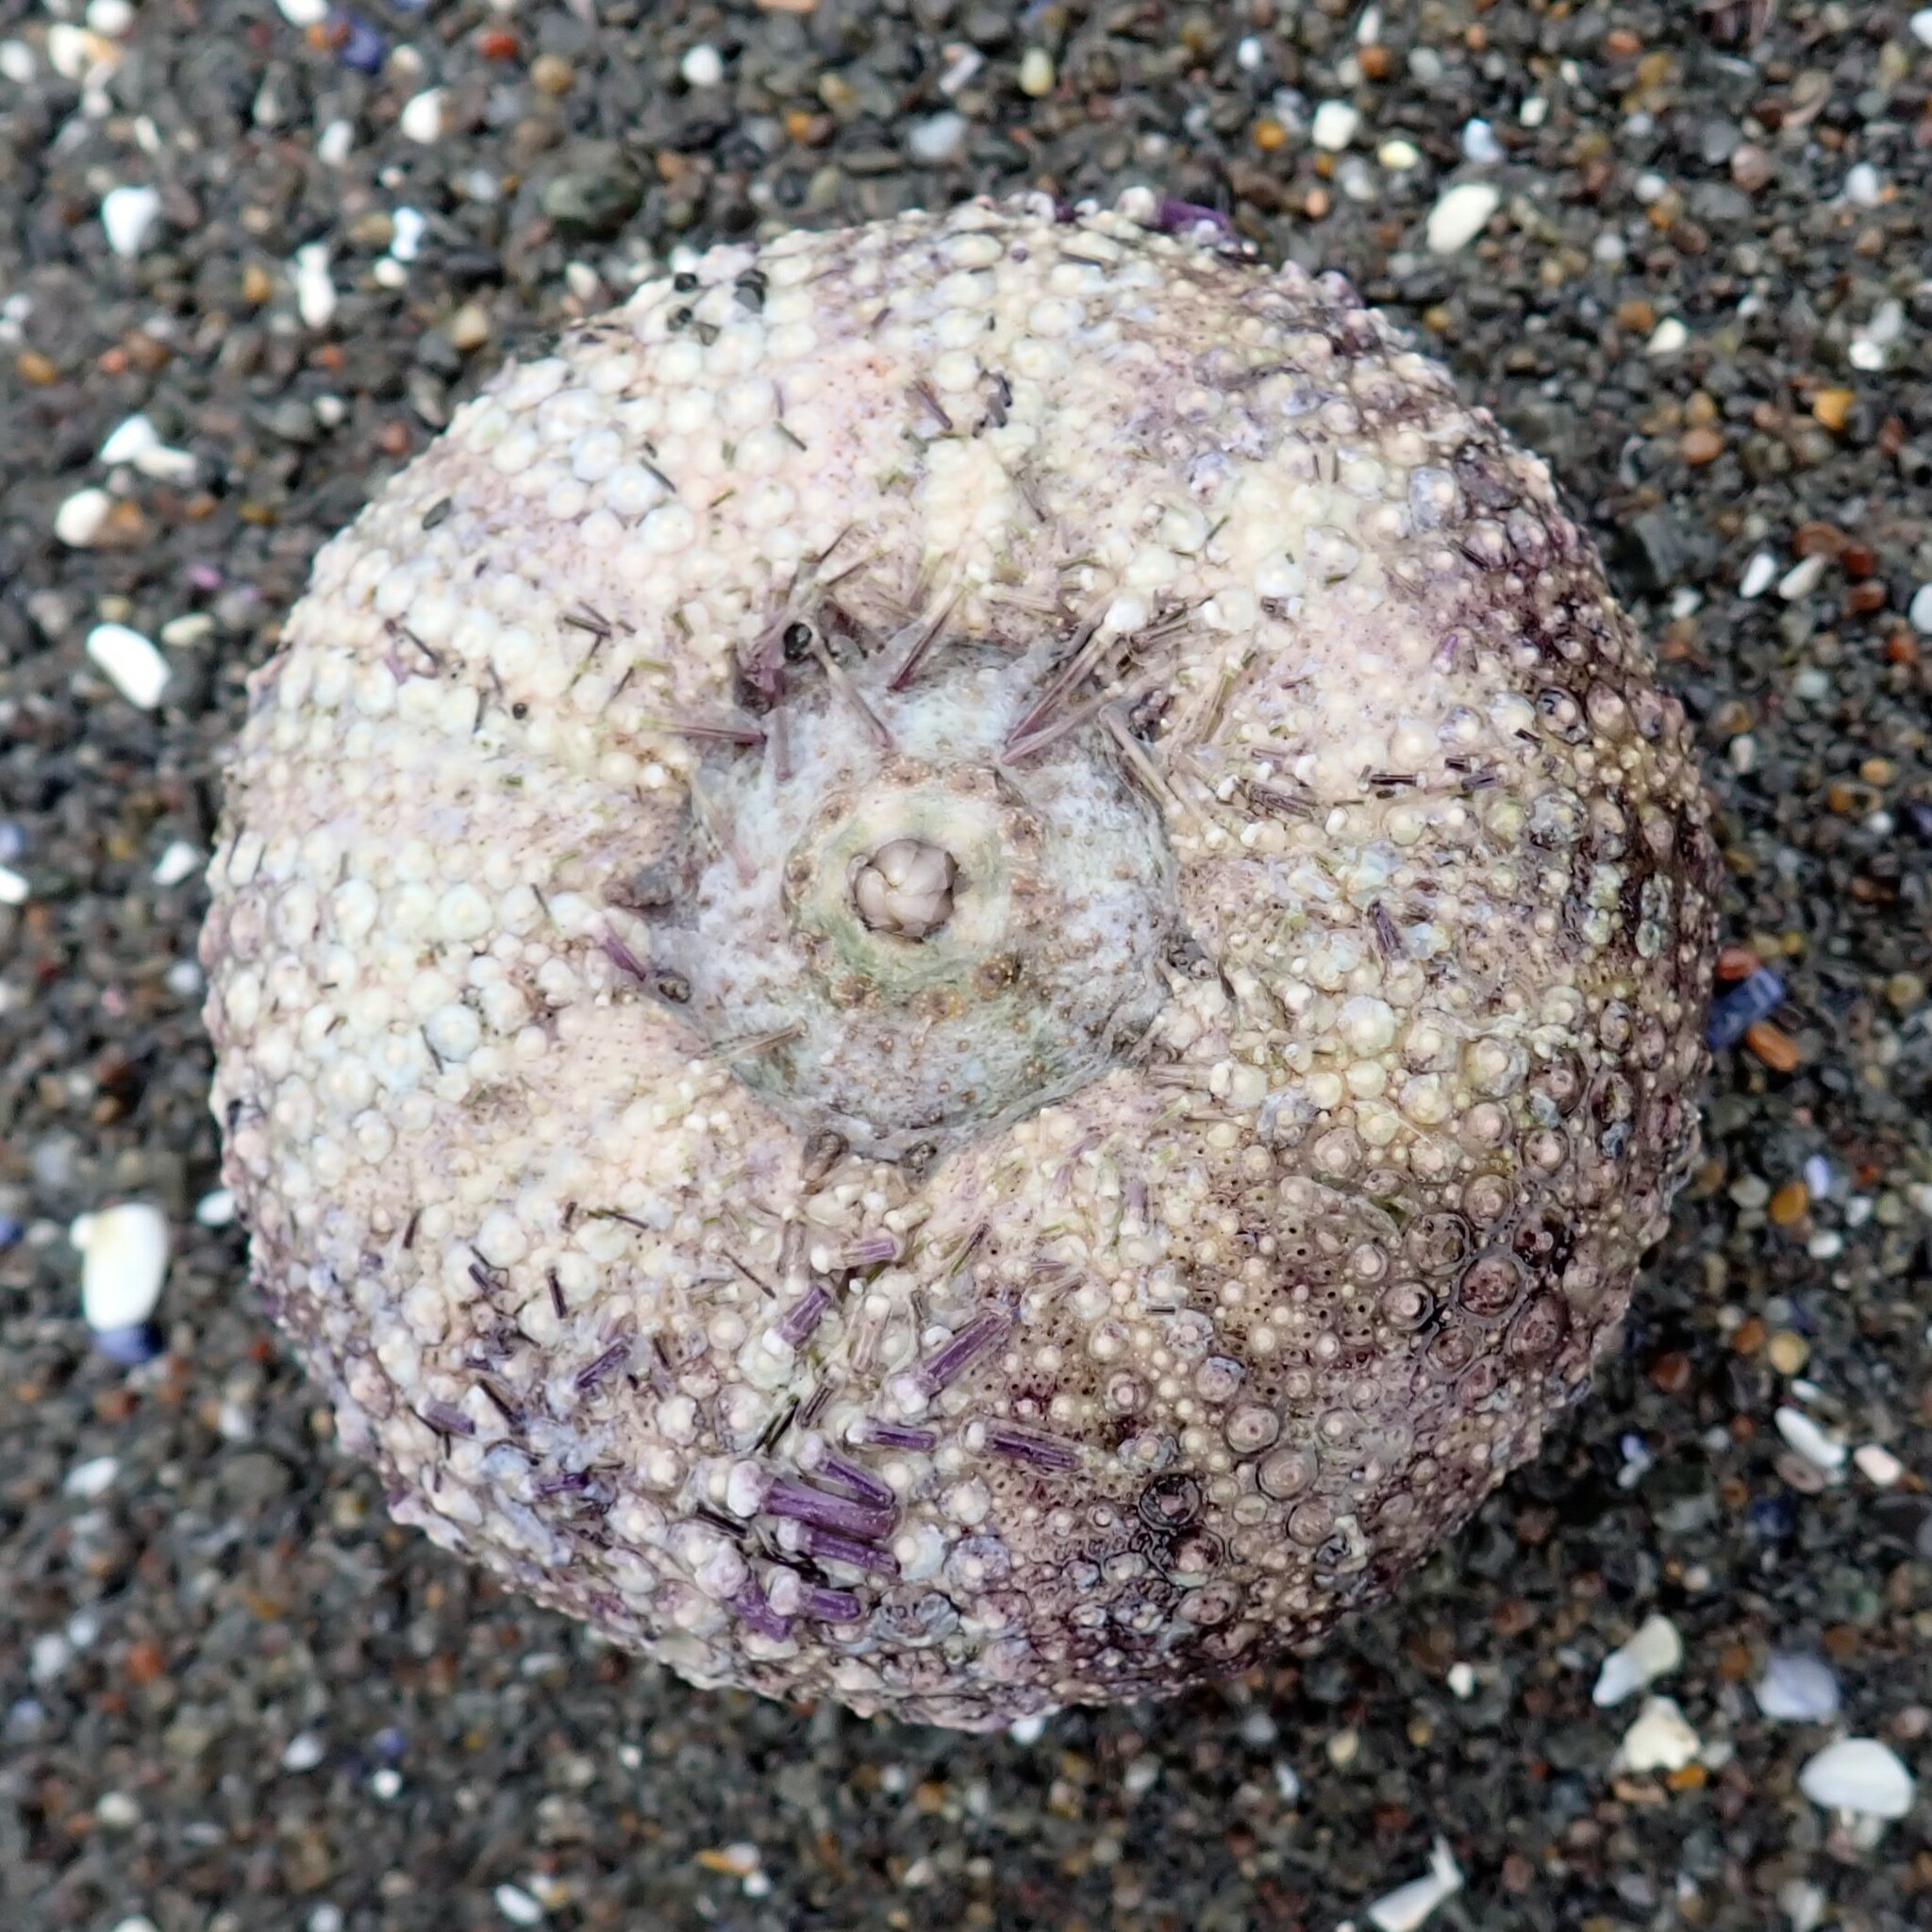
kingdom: Animalia
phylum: Echinodermata
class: Echinoidea
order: Camarodonta
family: Strongylocentrotidae
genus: Strongylocentrotus
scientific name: Strongylocentrotus purpuratus
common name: Purple sea urchin
